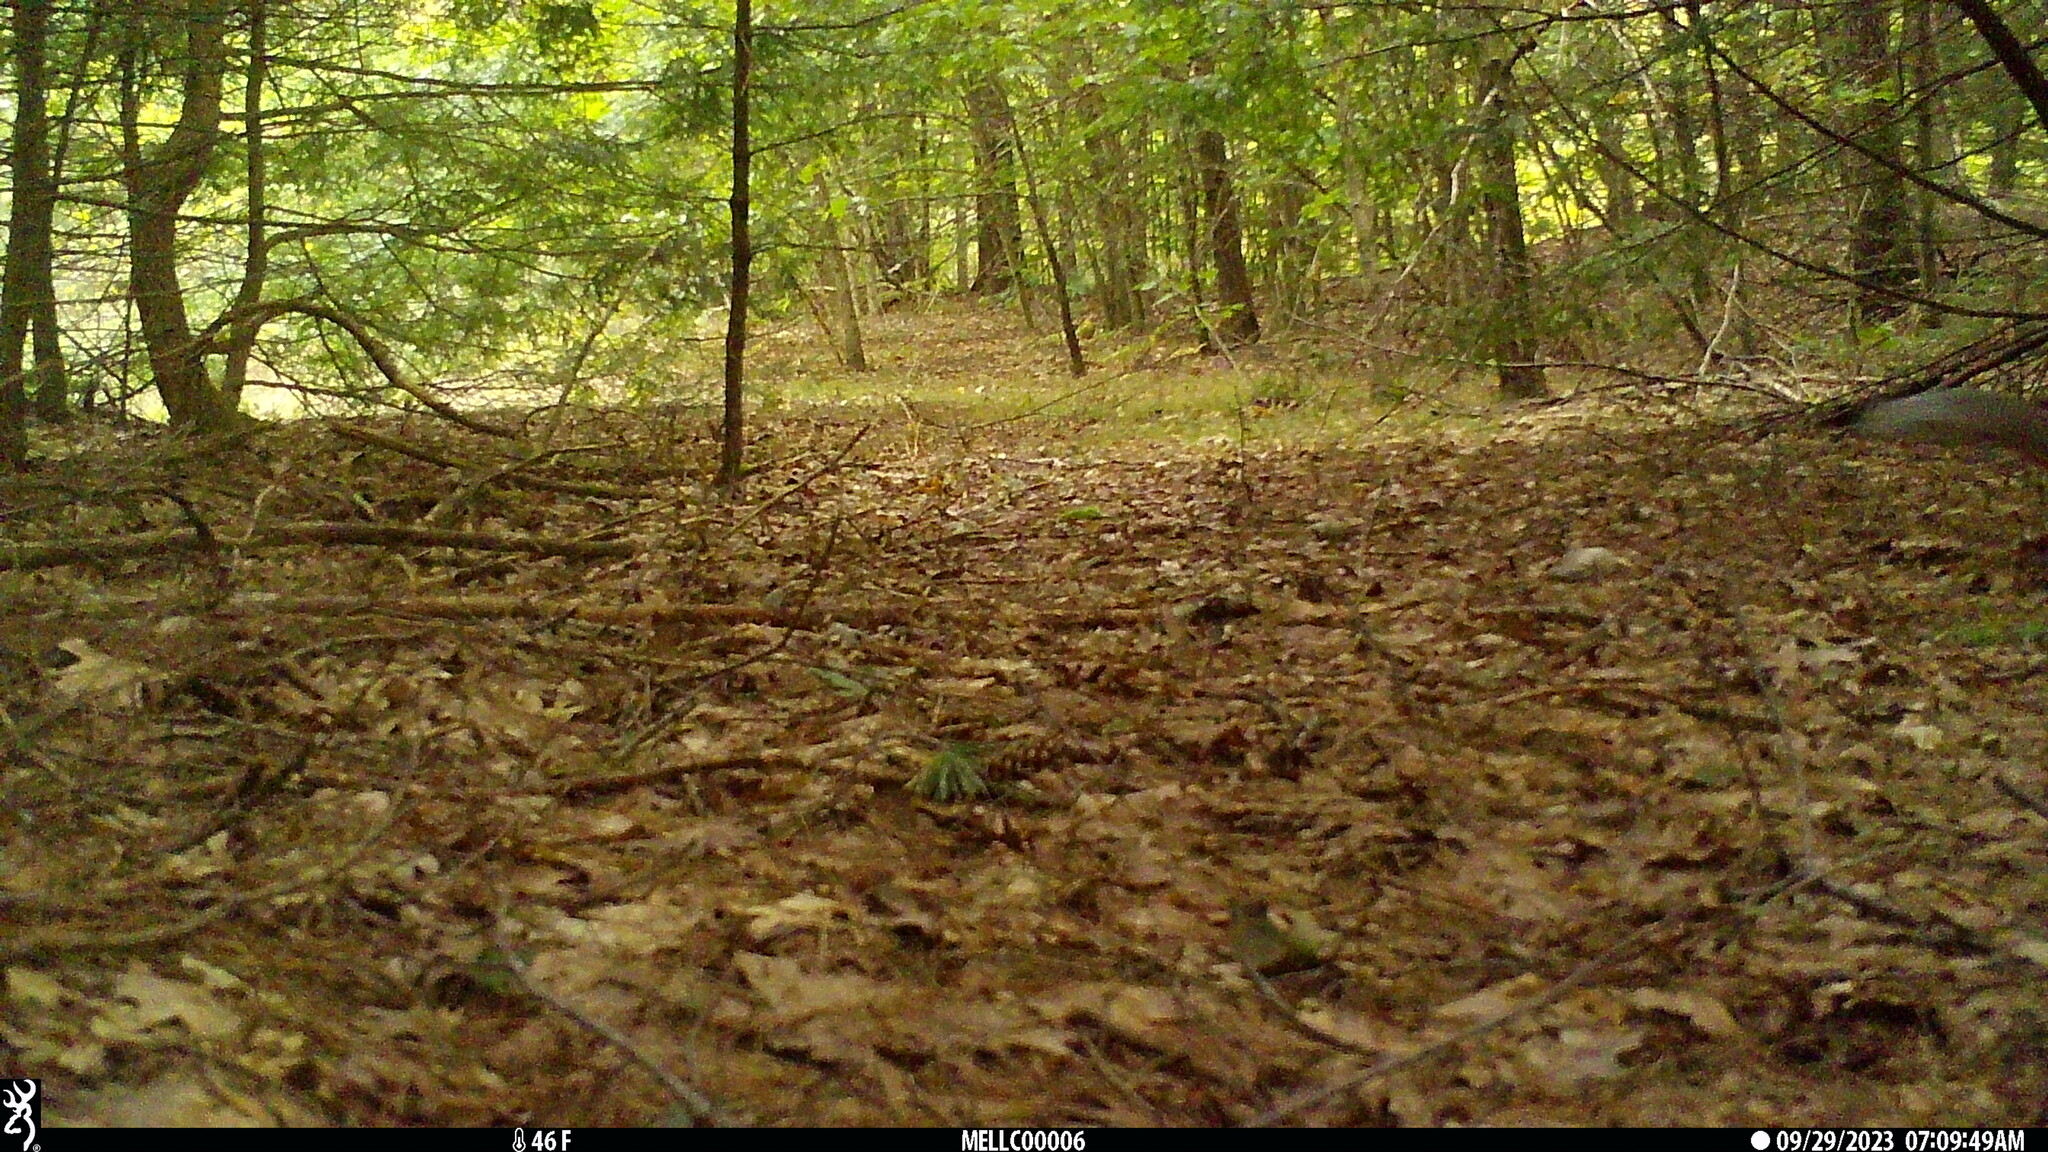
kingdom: Animalia
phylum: Chordata
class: Mammalia
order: Rodentia
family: Sciuridae
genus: Sciurus
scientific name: Sciurus carolinensis
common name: Eastern gray squirrel
